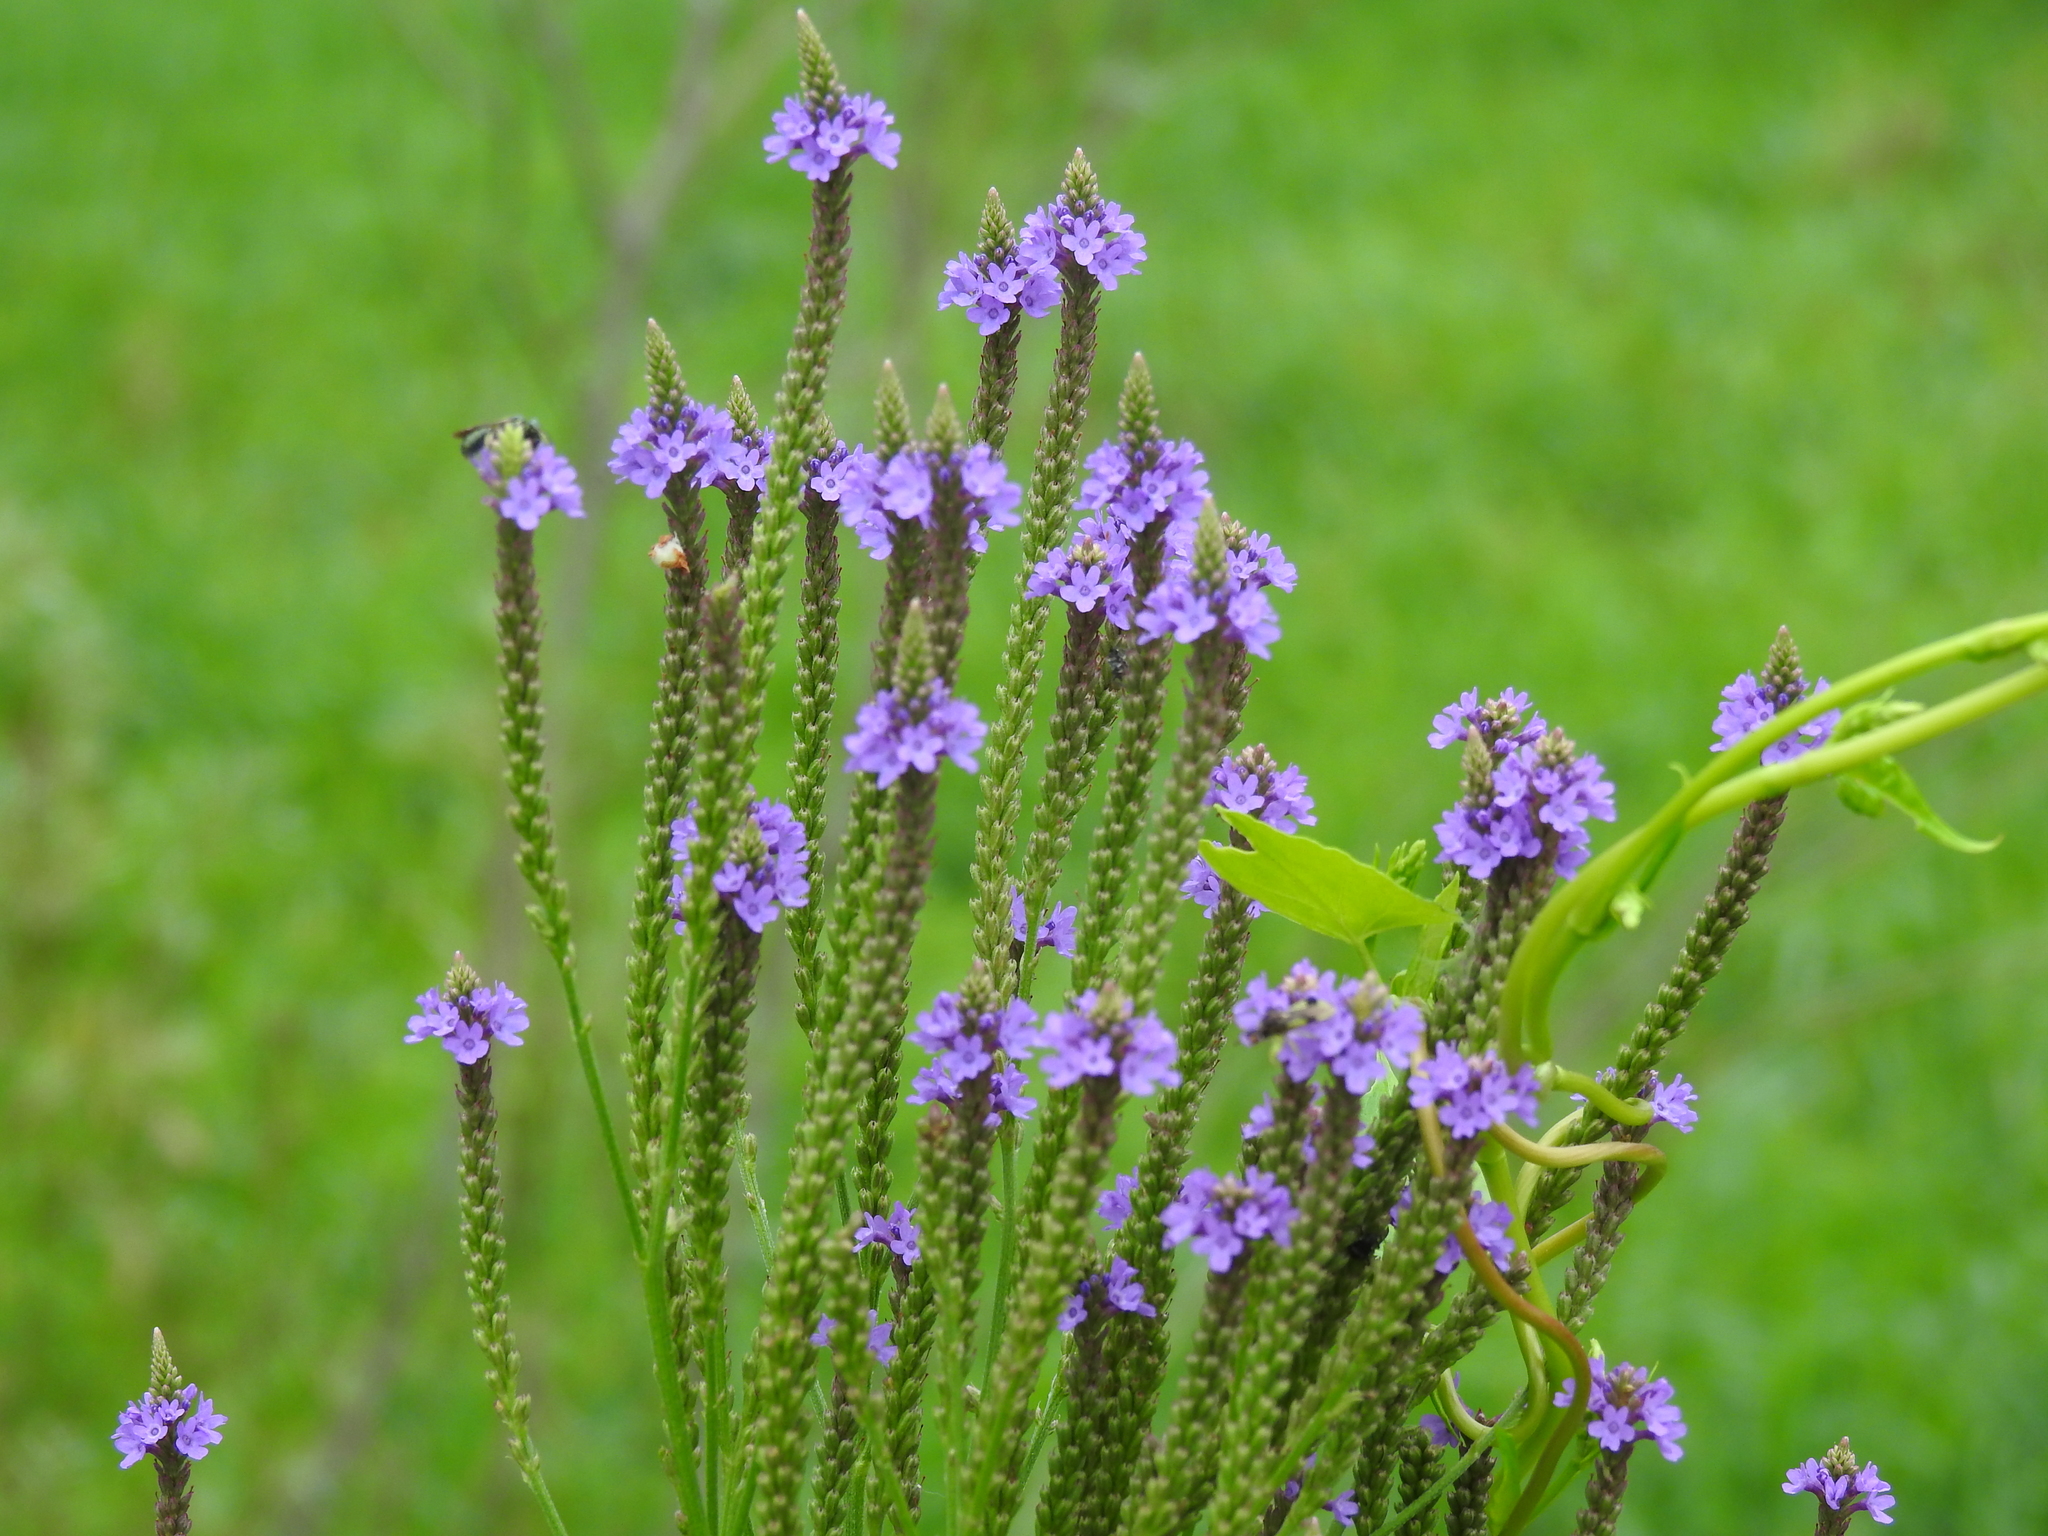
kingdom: Plantae
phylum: Tracheophyta
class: Magnoliopsida
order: Lamiales
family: Verbenaceae
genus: Verbena
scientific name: Verbena hastata
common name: American blue vervain
